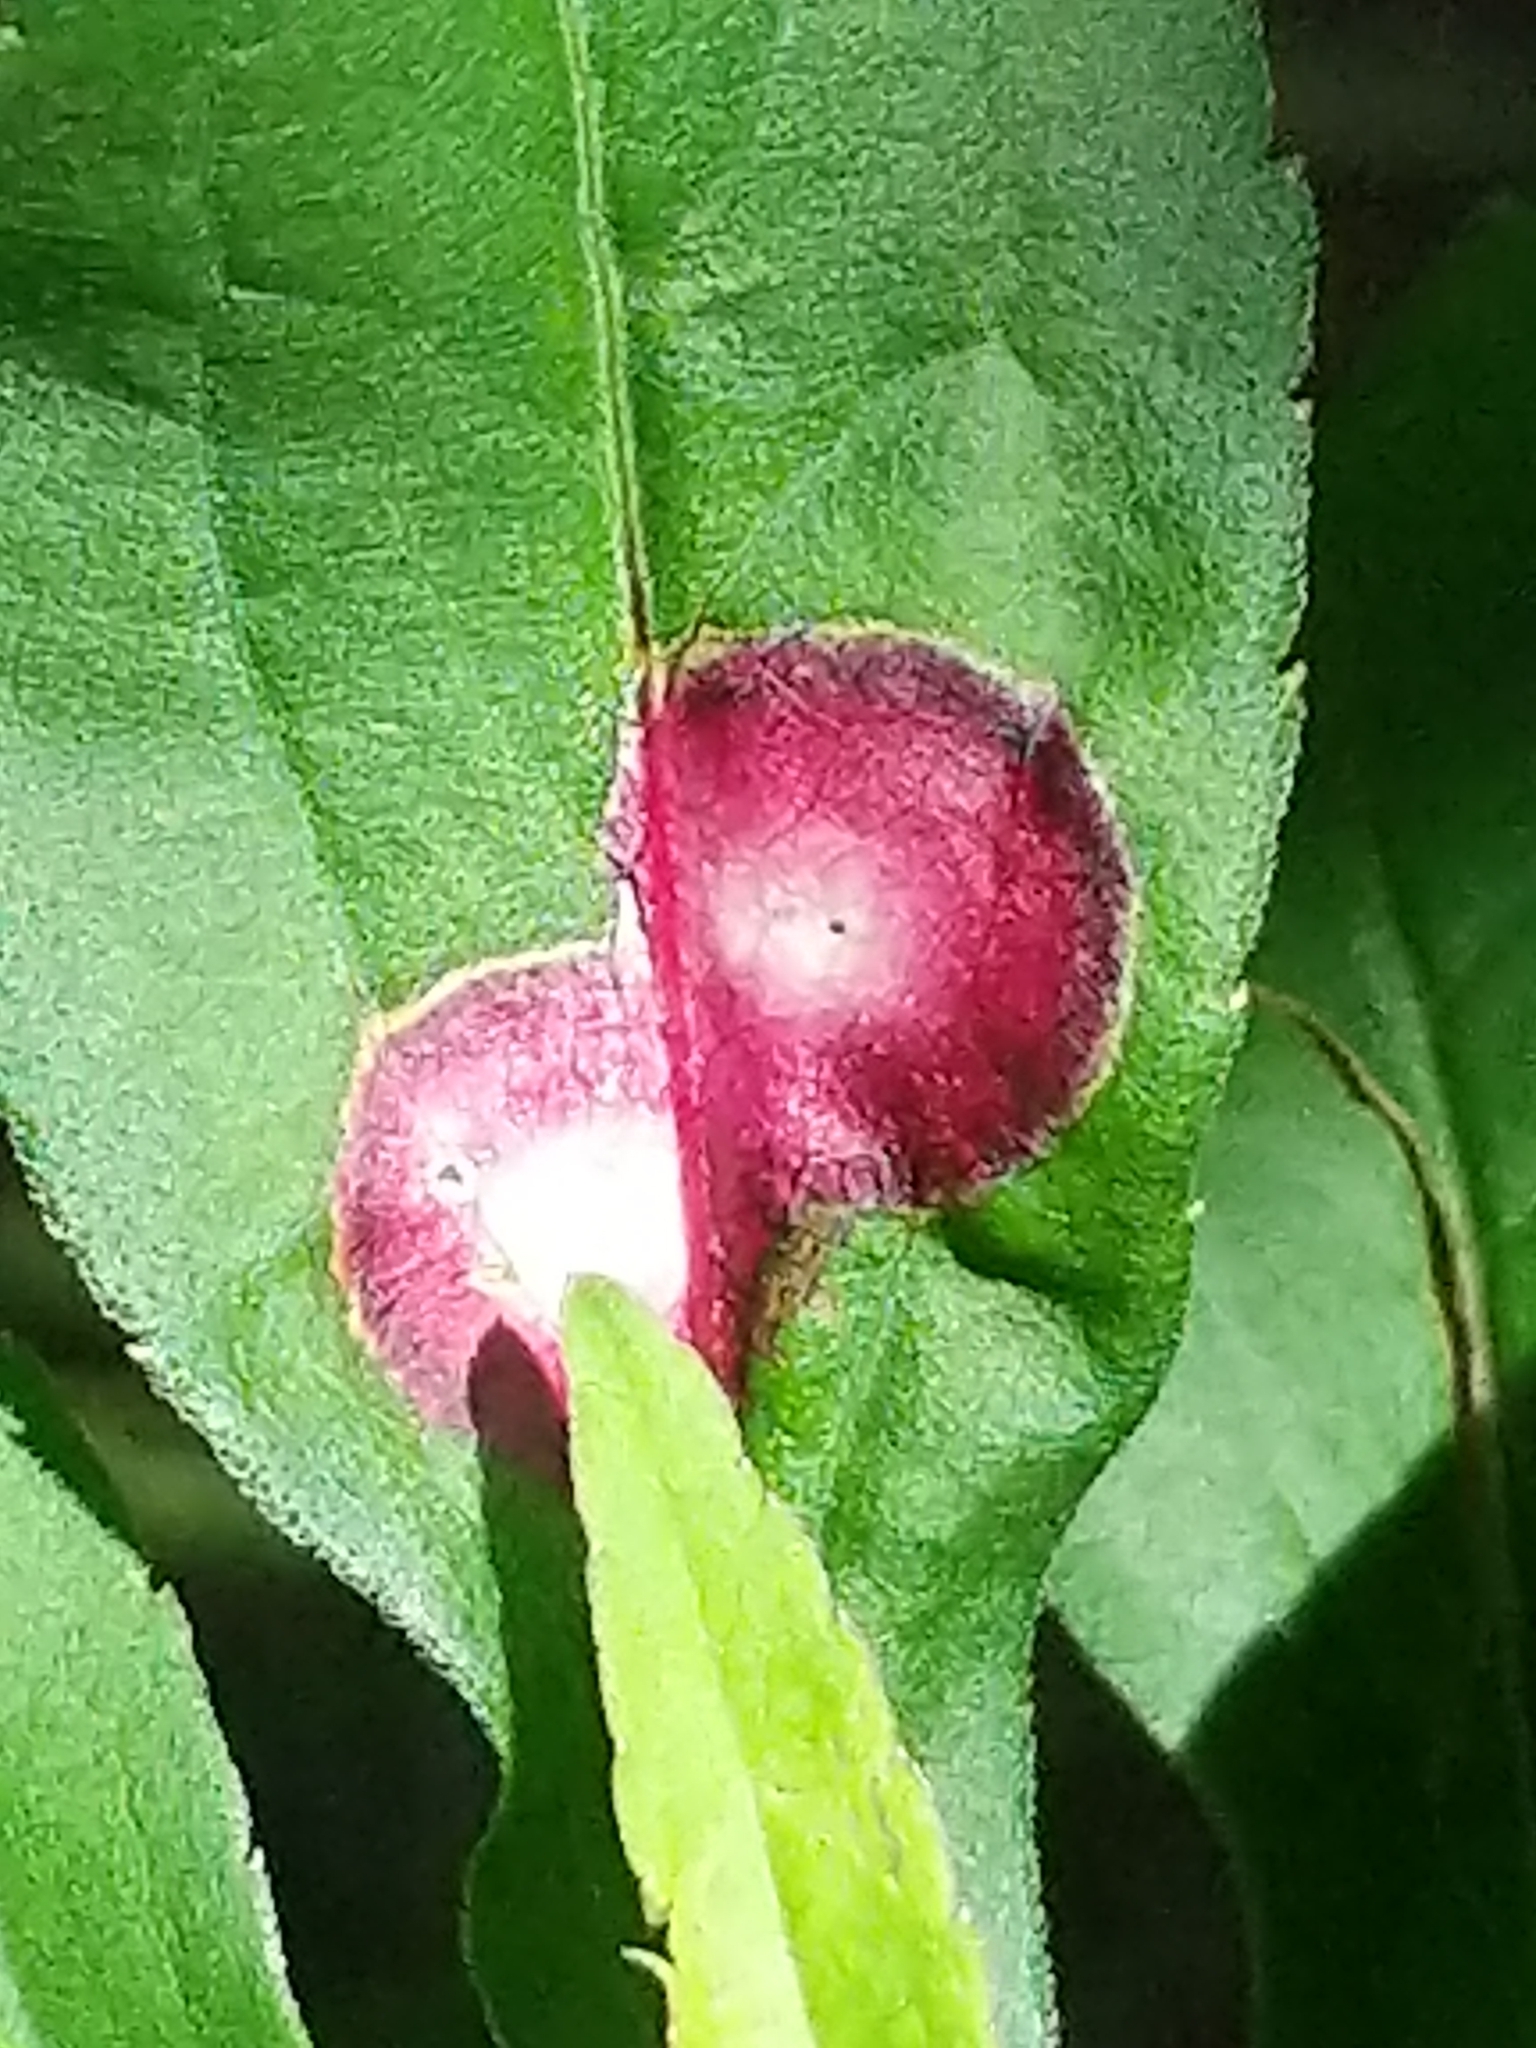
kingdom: Animalia
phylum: Arthropoda
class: Insecta
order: Diptera
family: Cecidomyiidae
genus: Asteromyia
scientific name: Asteromyia carbonifera
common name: Carbonifera goldenrod gall midge
